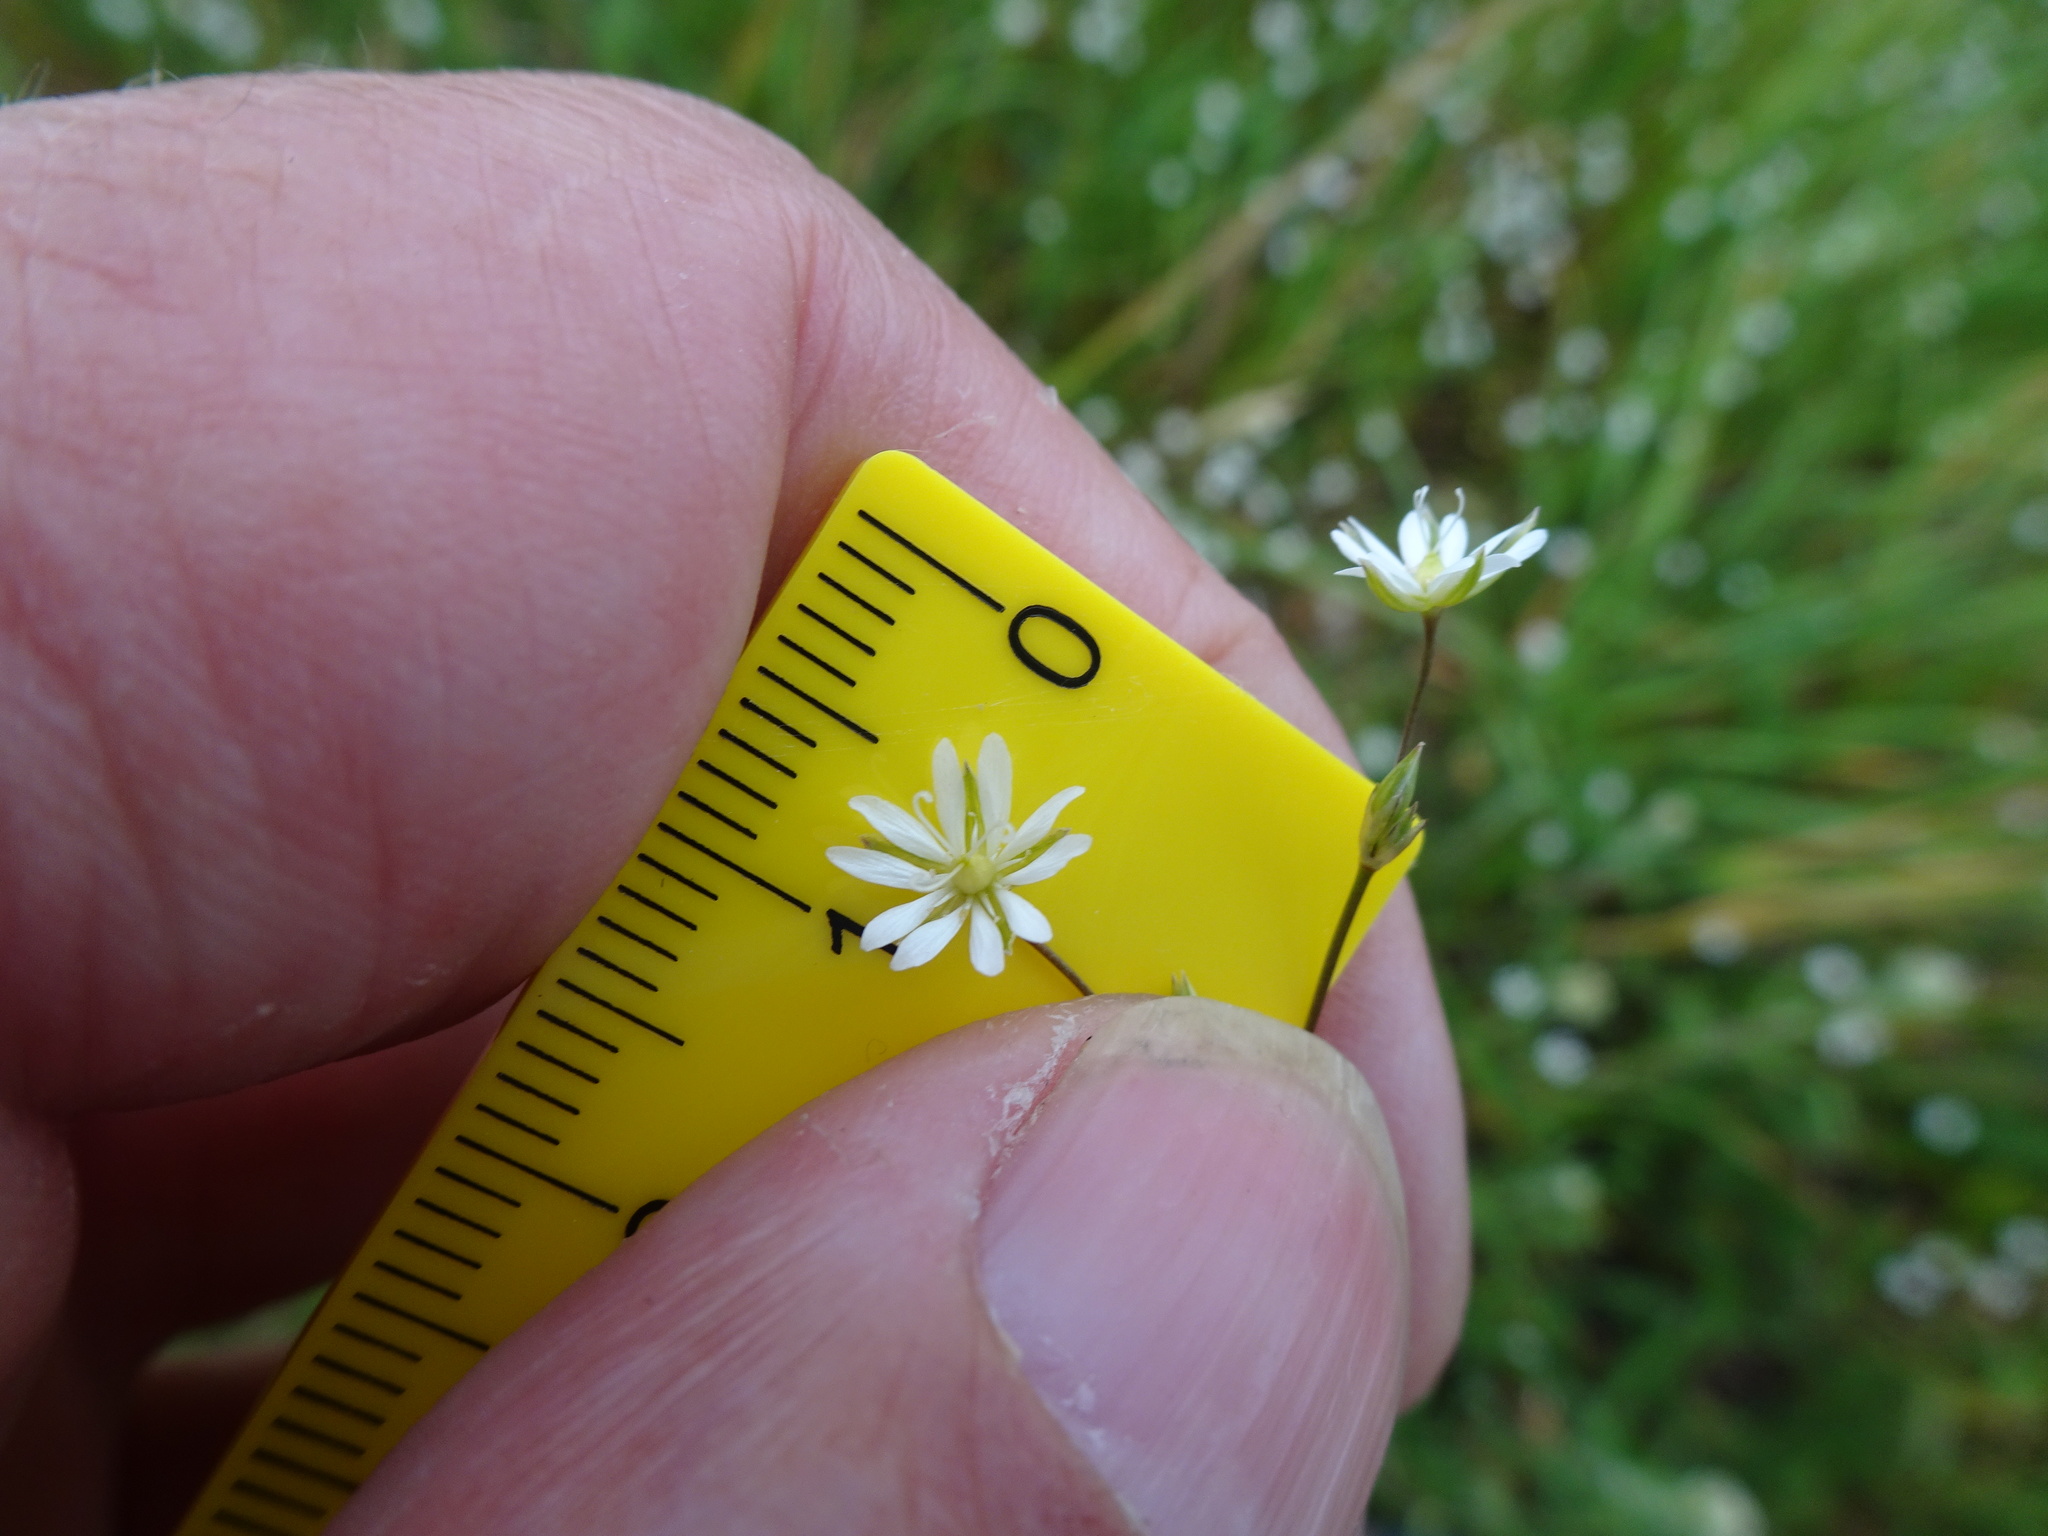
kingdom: Plantae
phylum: Tracheophyta
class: Magnoliopsida
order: Caryophyllales
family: Caryophyllaceae
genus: Stellaria
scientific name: Stellaria graminea
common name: Grass-like starwort
